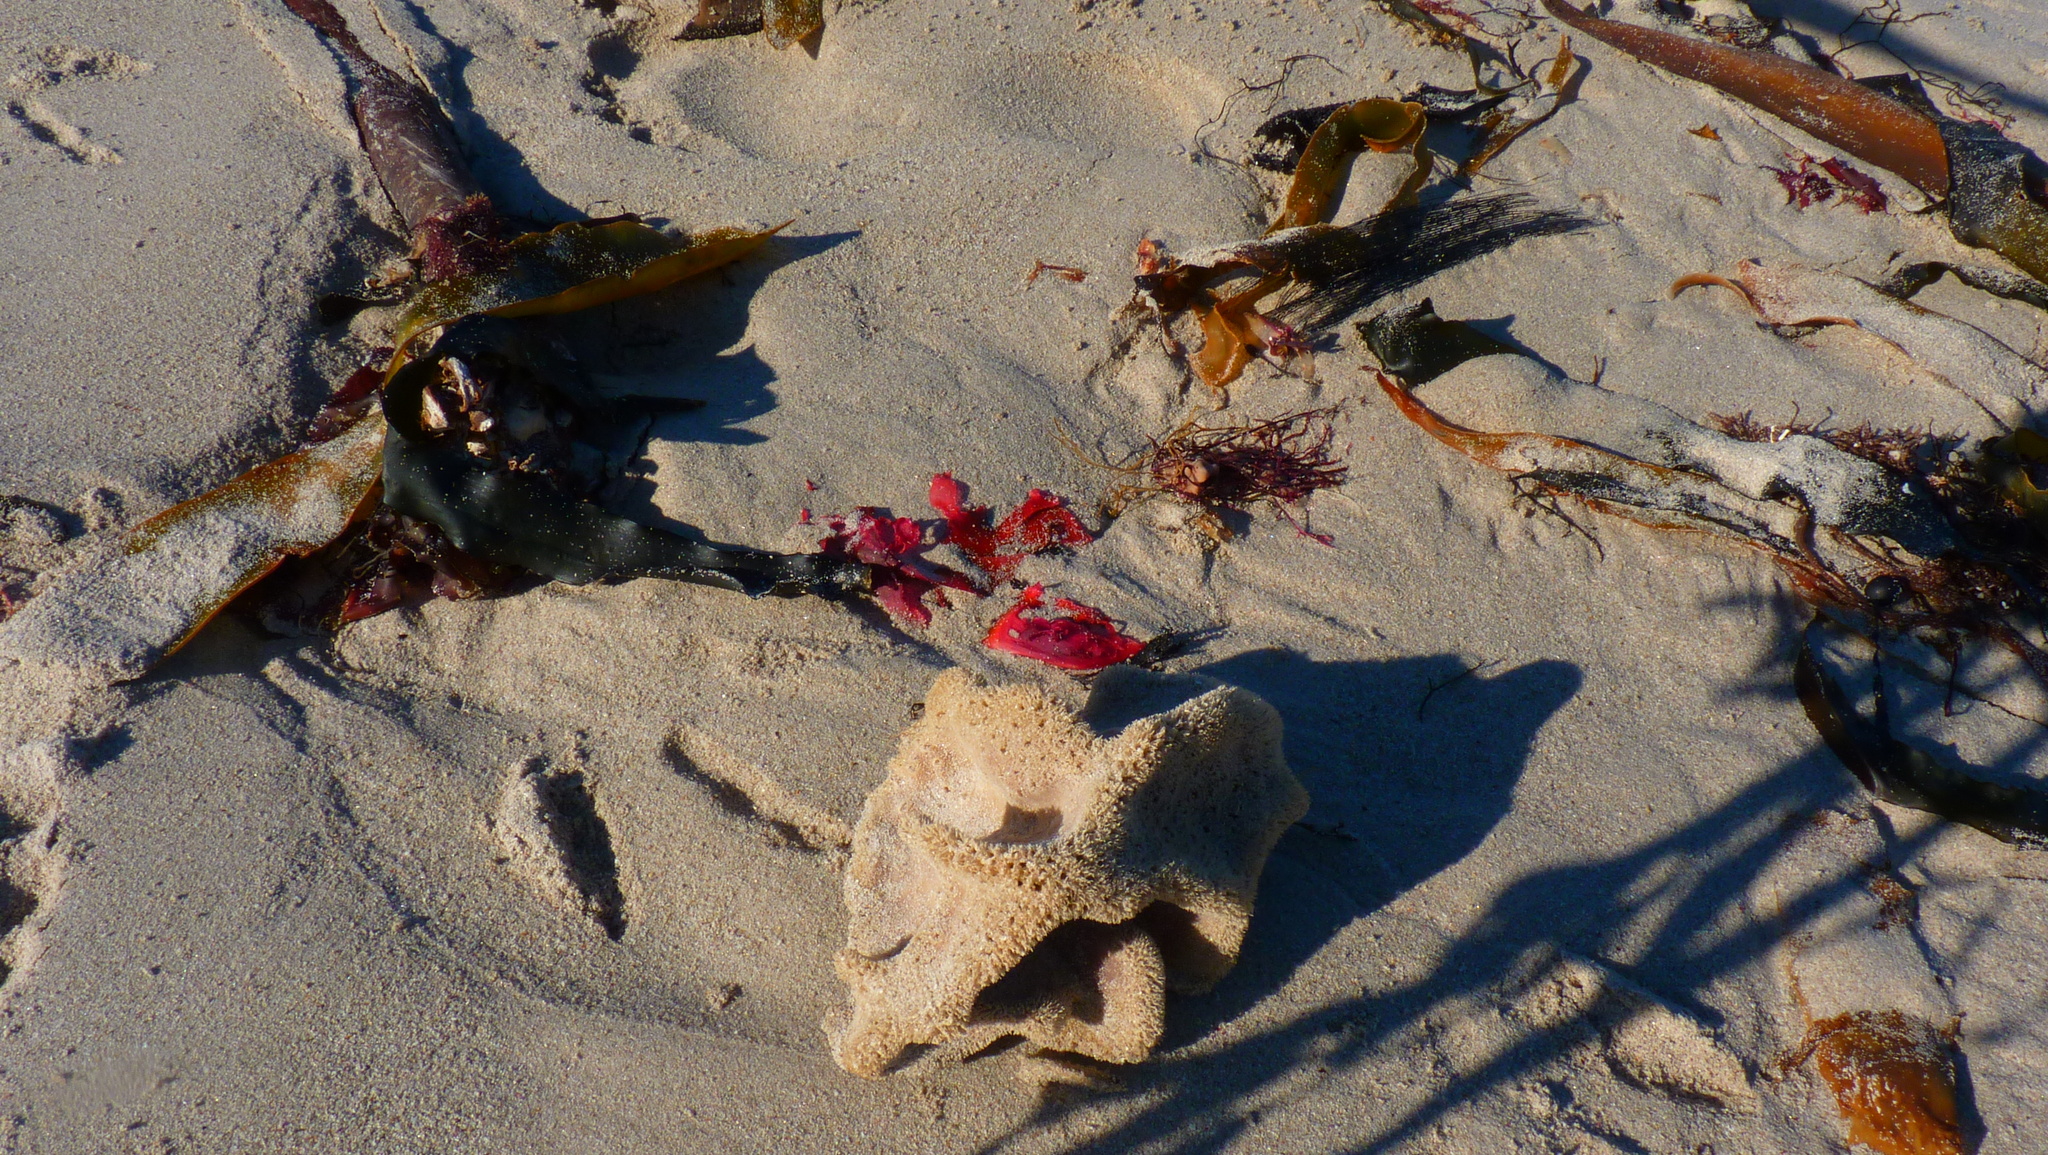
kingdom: Chromista
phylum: Ochrophyta
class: Phaeophyceae
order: Laminariales
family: Lessoniaceae
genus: Ecklonia
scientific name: Ecklonia
